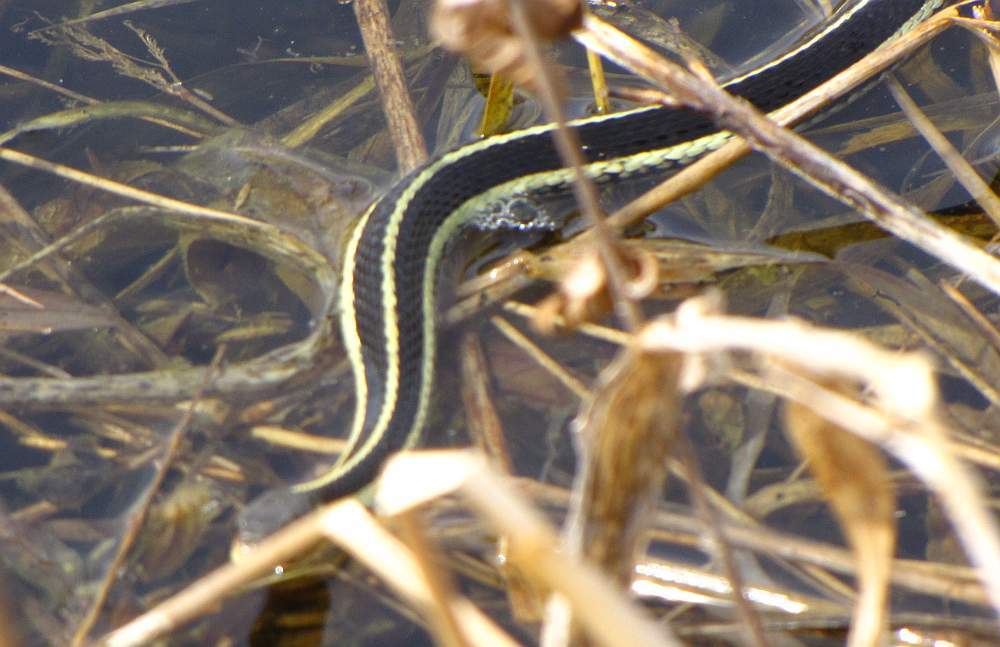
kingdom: Animalia
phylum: Chordata
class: Squamata
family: Colubridae
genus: Thamnophis
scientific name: Thamnophis sirtalis
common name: Common garter snake
